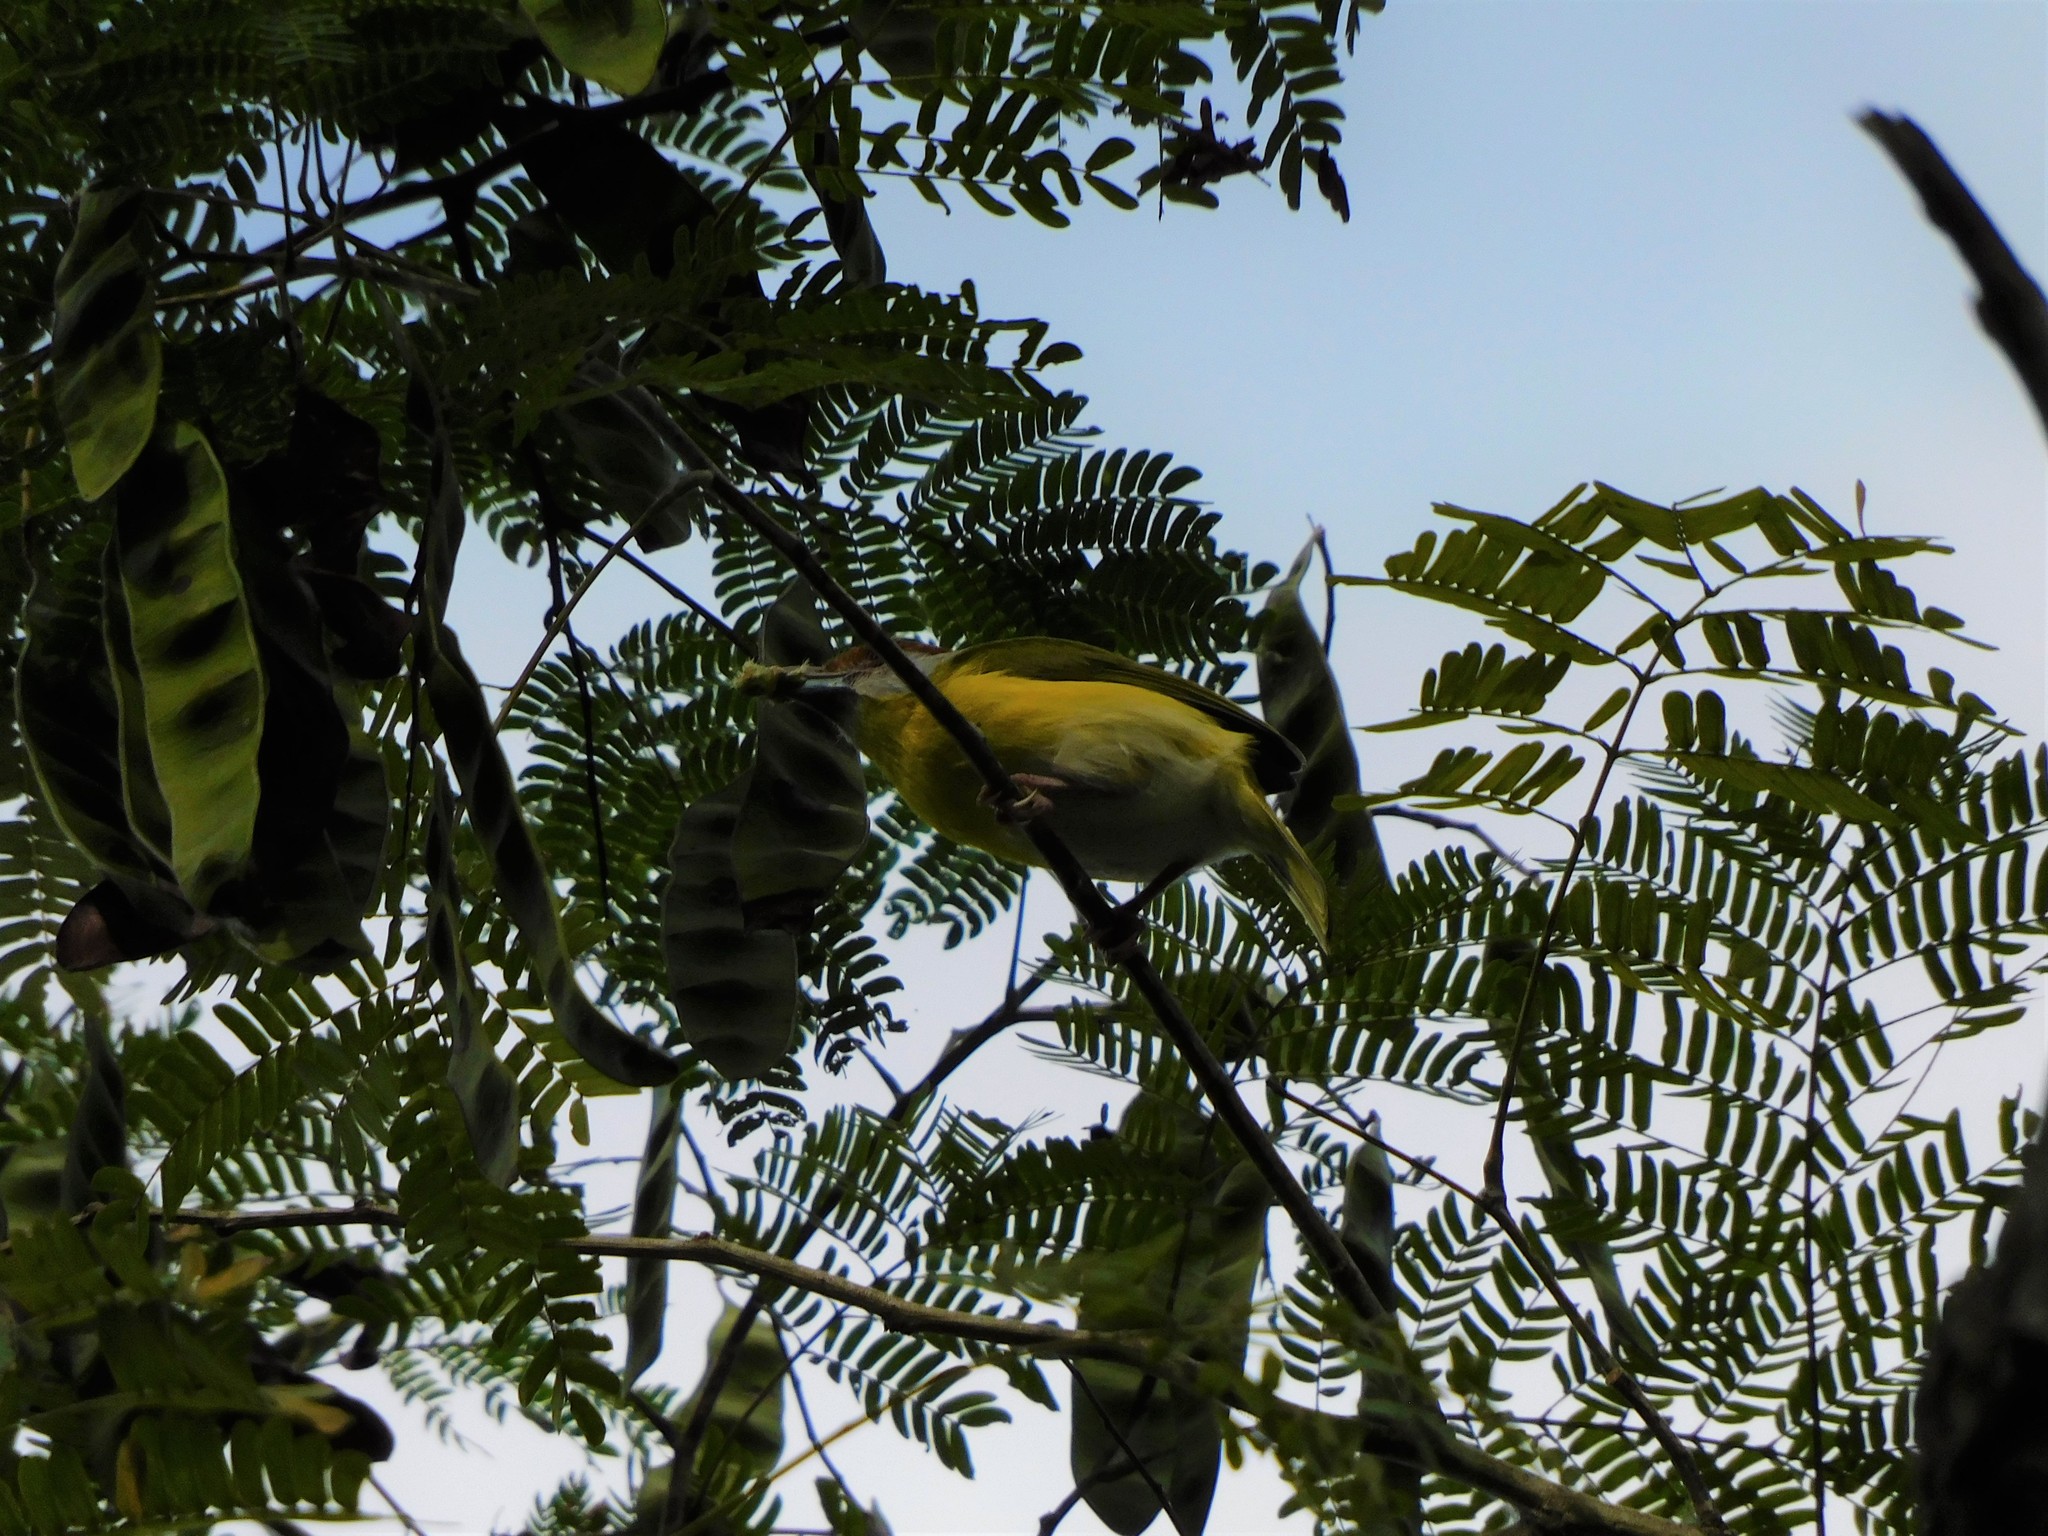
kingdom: Animalia
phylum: Chordata
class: Aves
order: Passeriformes
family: Vireonidae
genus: Cyclarhis
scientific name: Cyclarhis gujanensis
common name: Rufous-browed peppershrike
